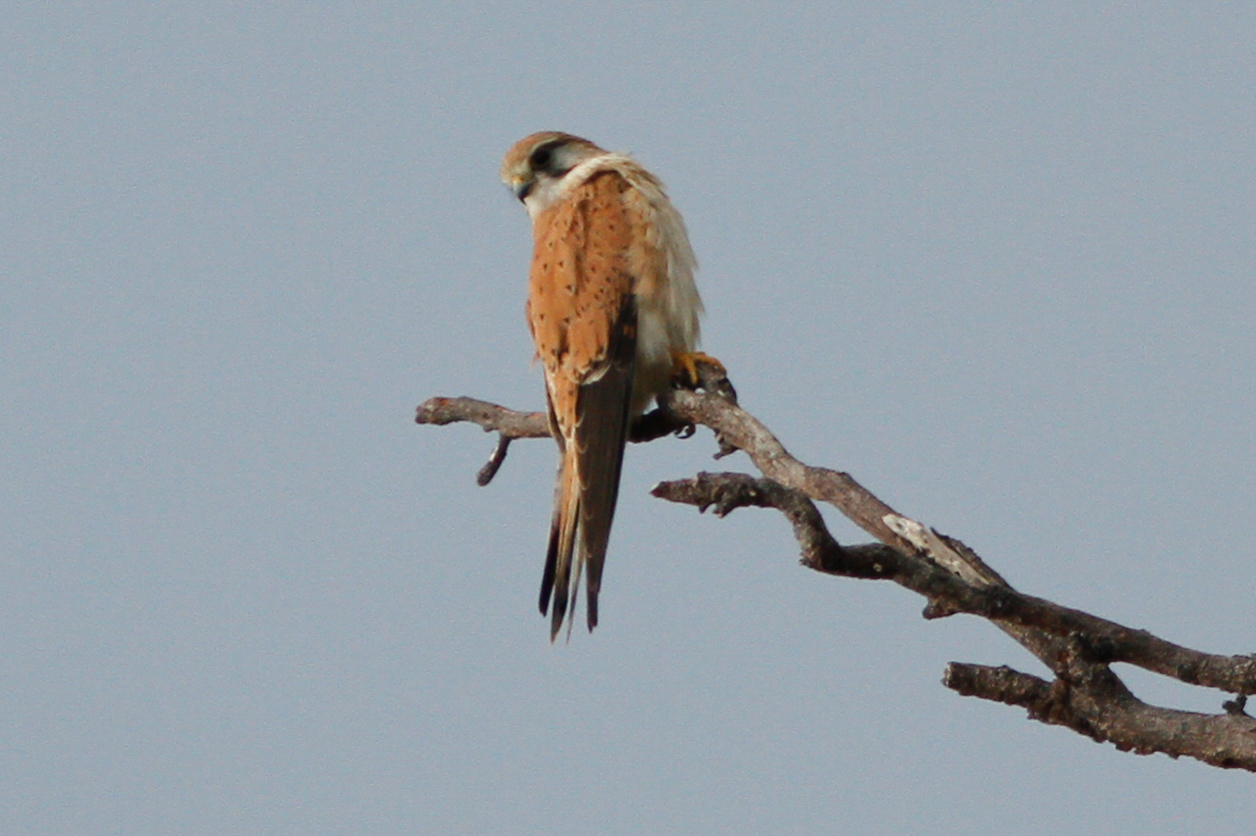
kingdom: Animalia
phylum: Chordata
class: Aves
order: Falconiformes
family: Falconidae
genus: Falco
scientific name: Falco cenchroides
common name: Nankeen kestrel
